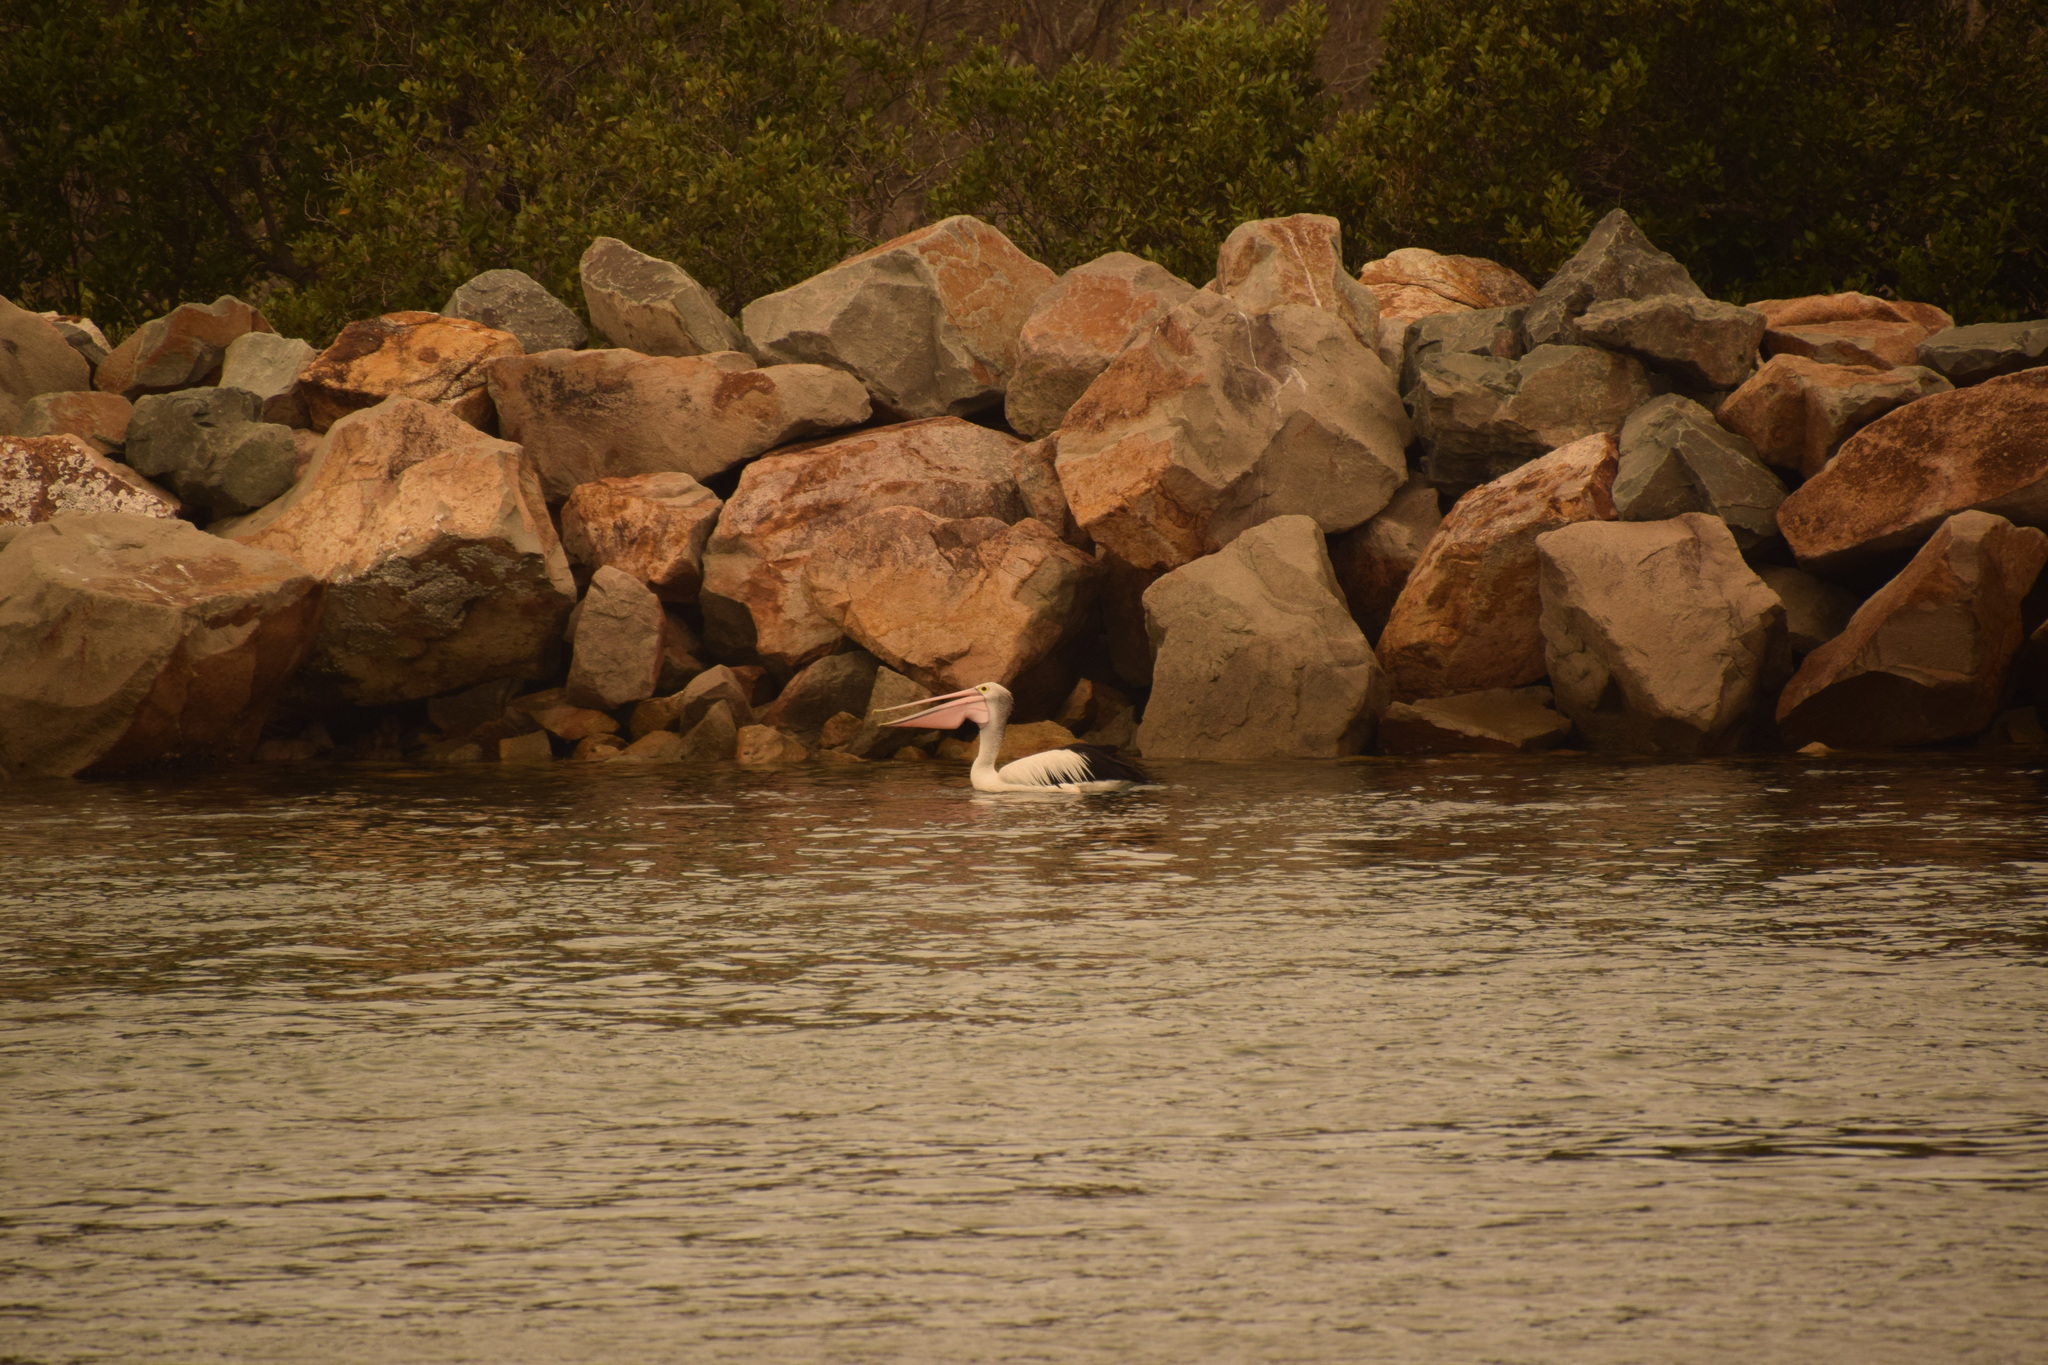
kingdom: Animalia
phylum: Chordata
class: Aves
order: Pelecaniformes
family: Pelecanidae
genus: Pelecanus
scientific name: Pelecanus conspicillatus
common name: Australian pelican
